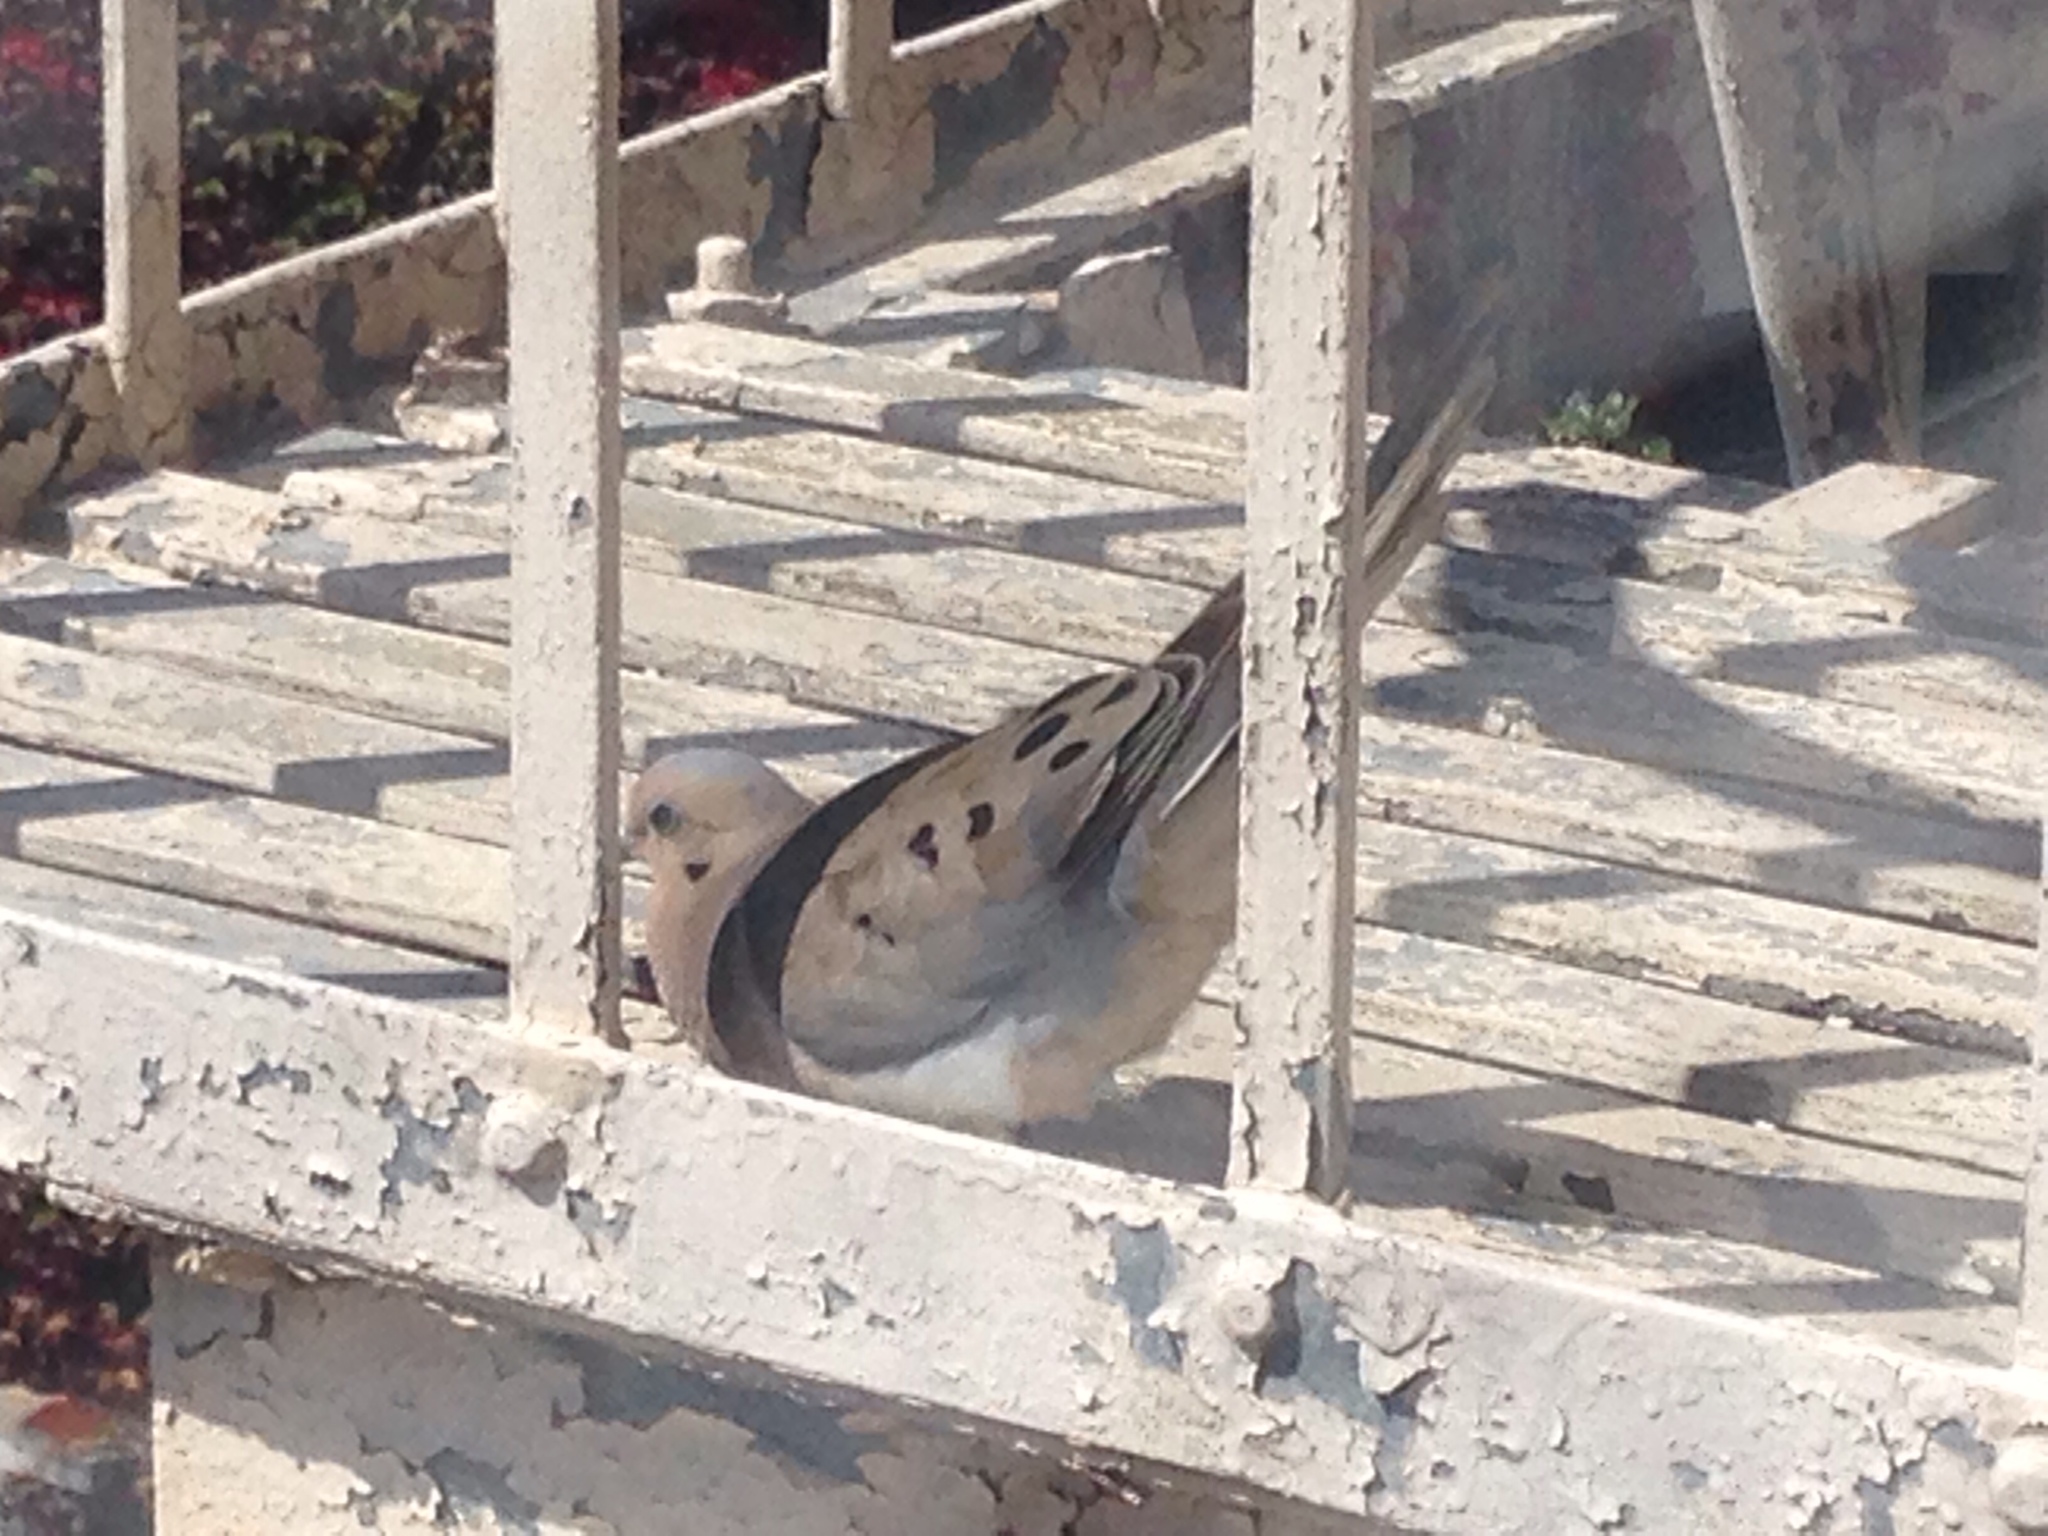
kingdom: Animalia
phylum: Chordata
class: Aves
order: Columbiformes
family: Columbidae
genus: Zenaida
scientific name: Zenaida macroura
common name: Mourning dove
